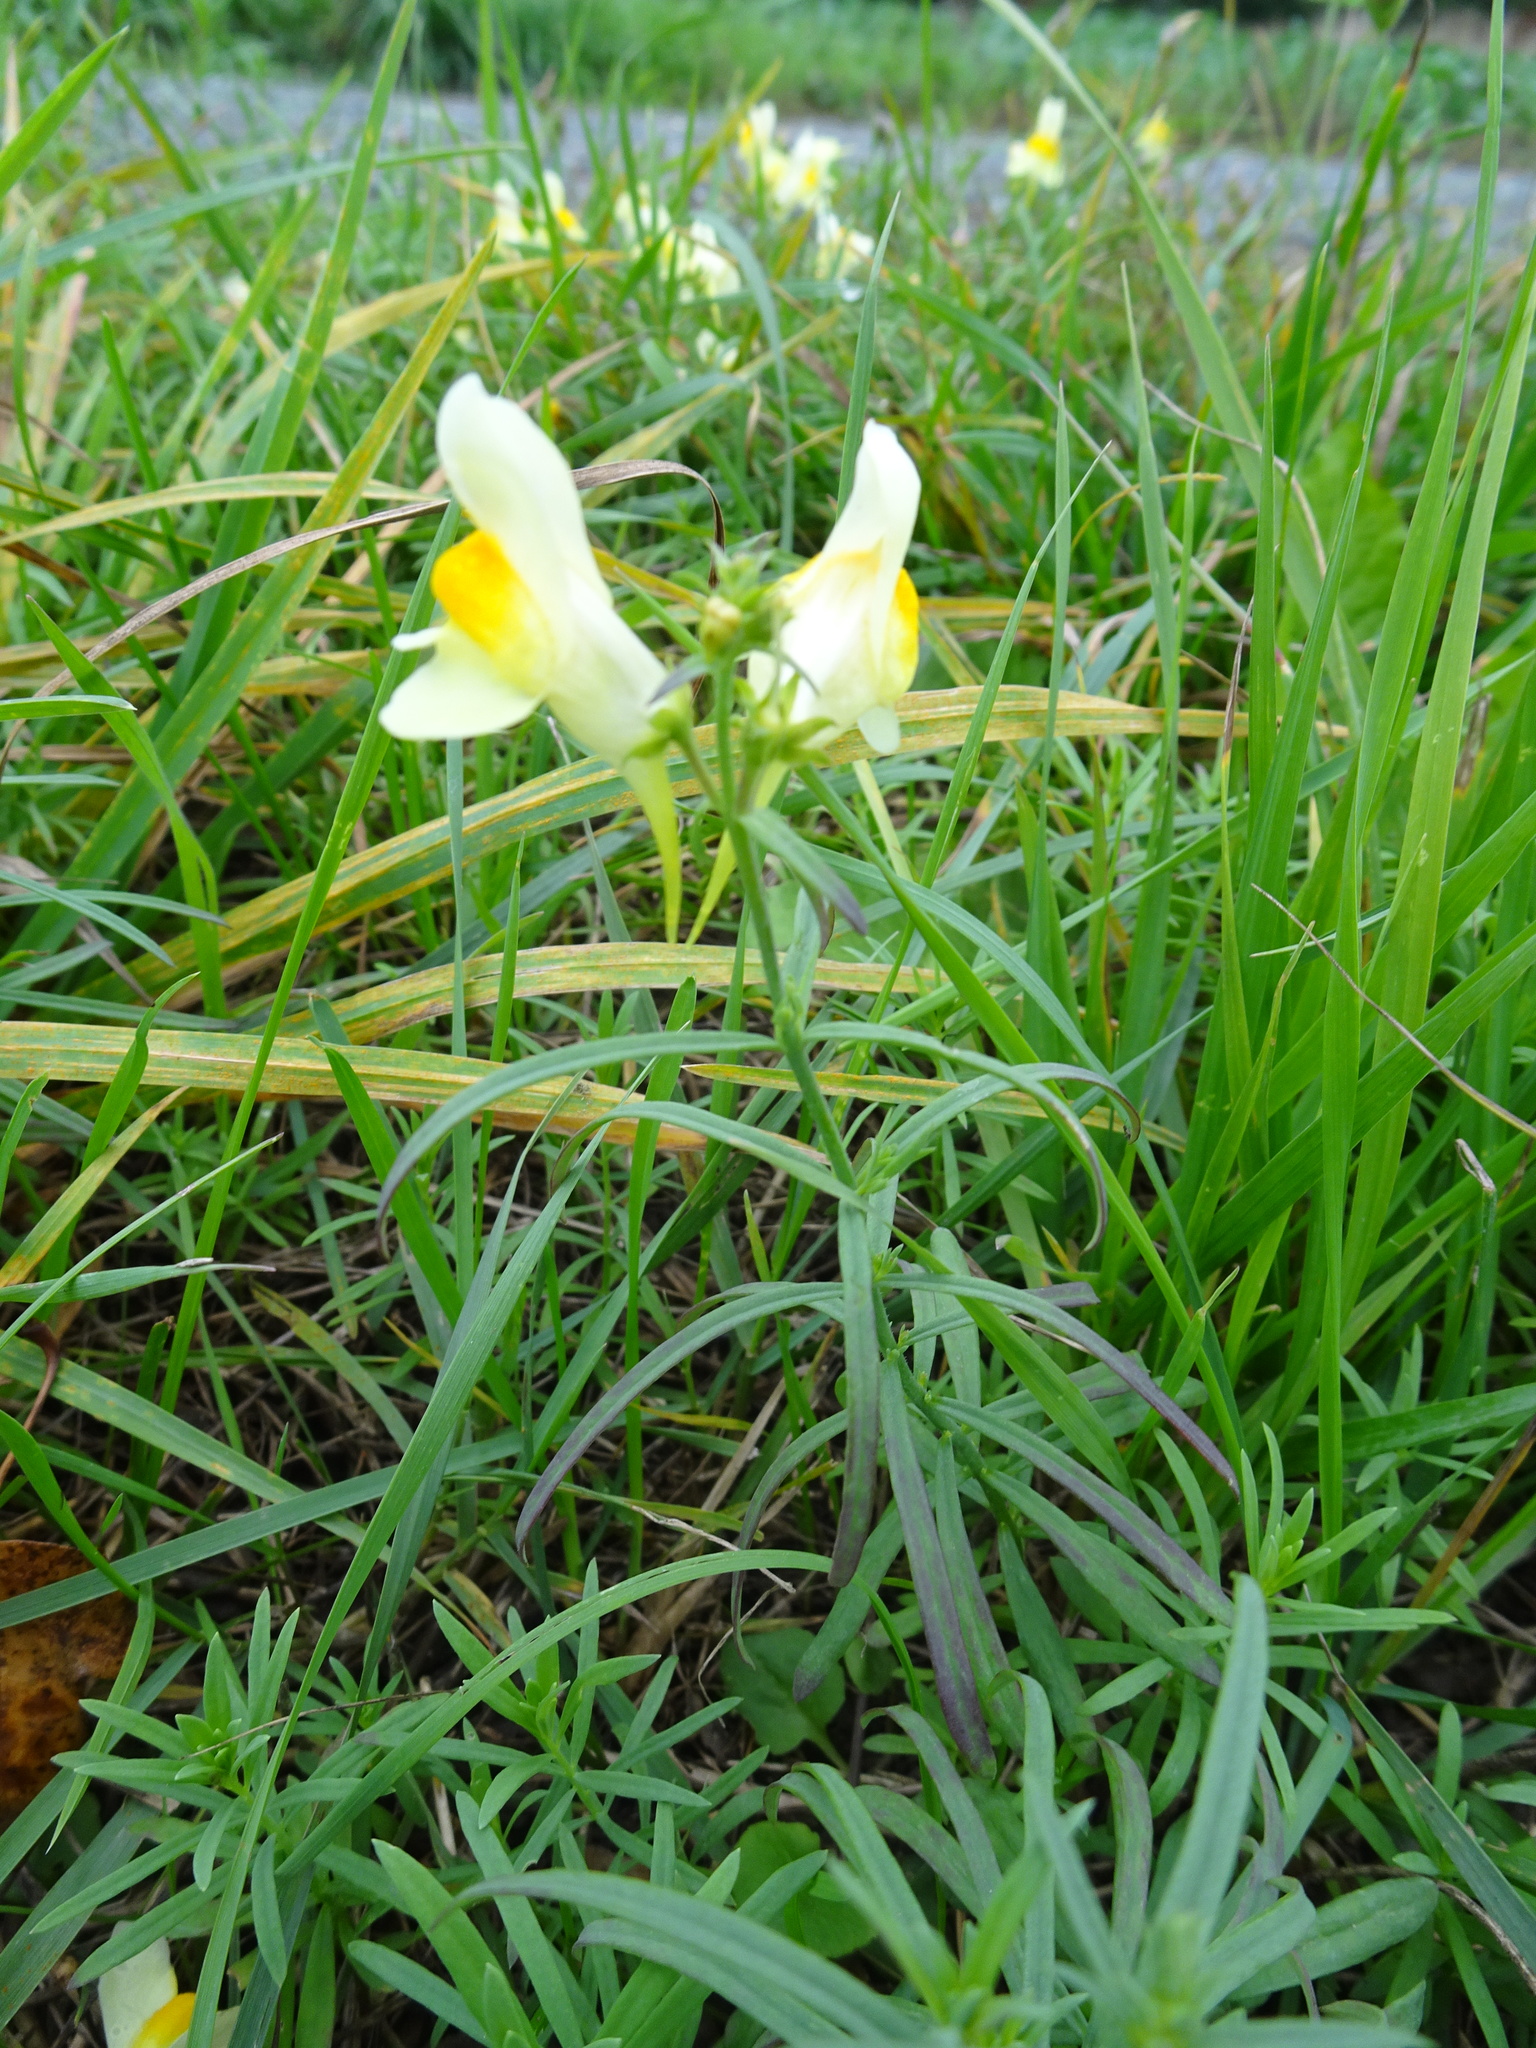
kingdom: Plantae
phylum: Tracheophyta
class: Magnoliopsida
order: Lamiales
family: Plantaginaceae
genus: Linaria
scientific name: Linaria vulgaris
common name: Butter and eggs
